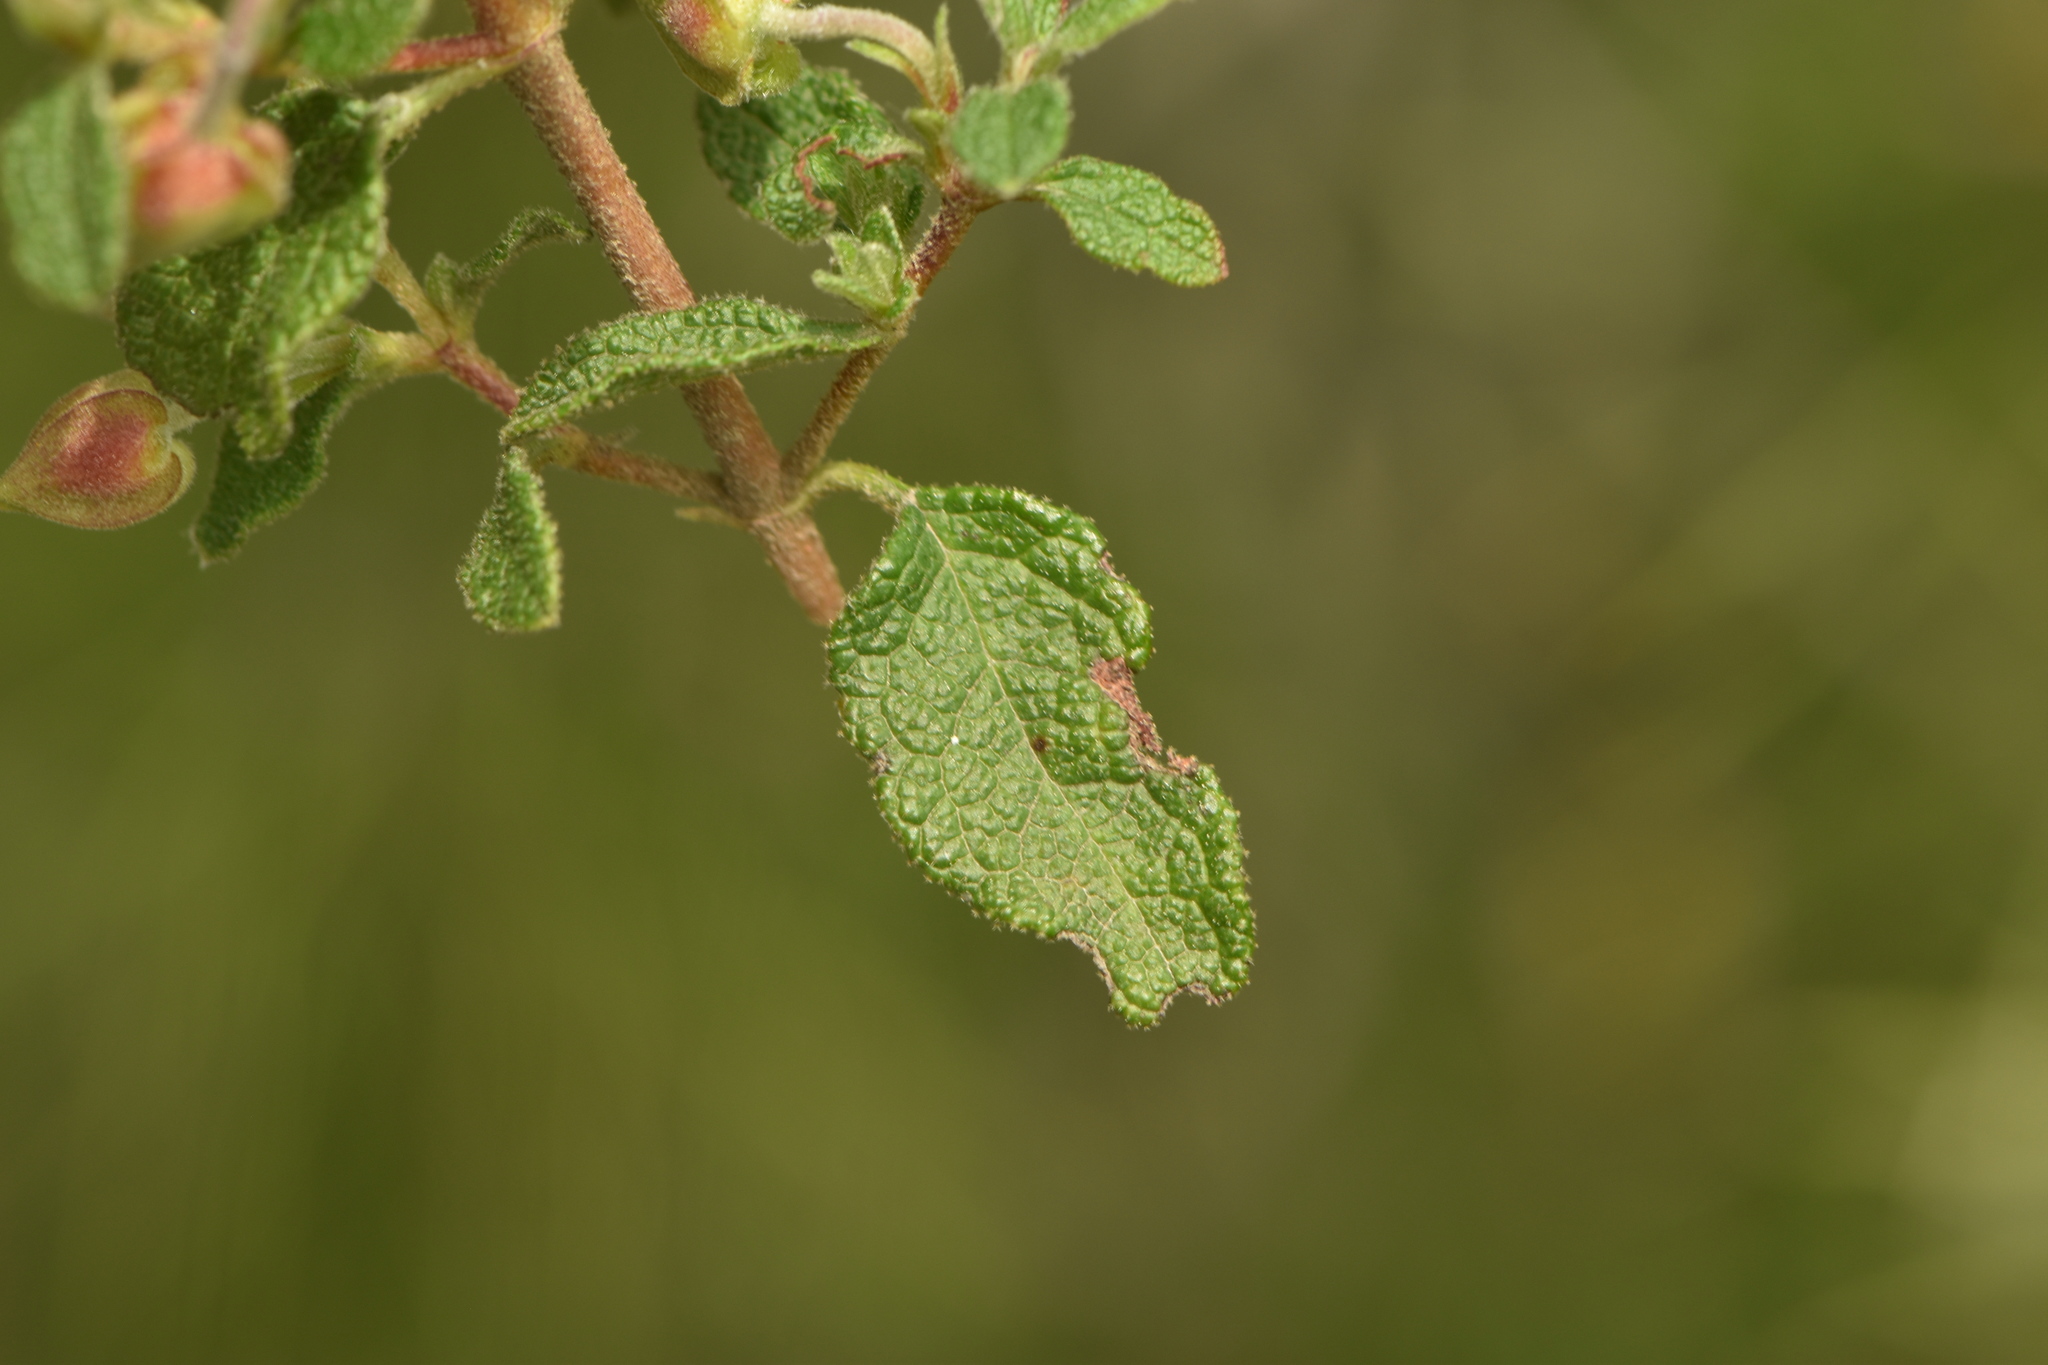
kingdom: Plantae
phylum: Tracheophyta
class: Magnoliopsida
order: Malvales
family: Cistaceae
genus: Cistus
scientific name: Cistus salviifolius
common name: Salvia cistus
